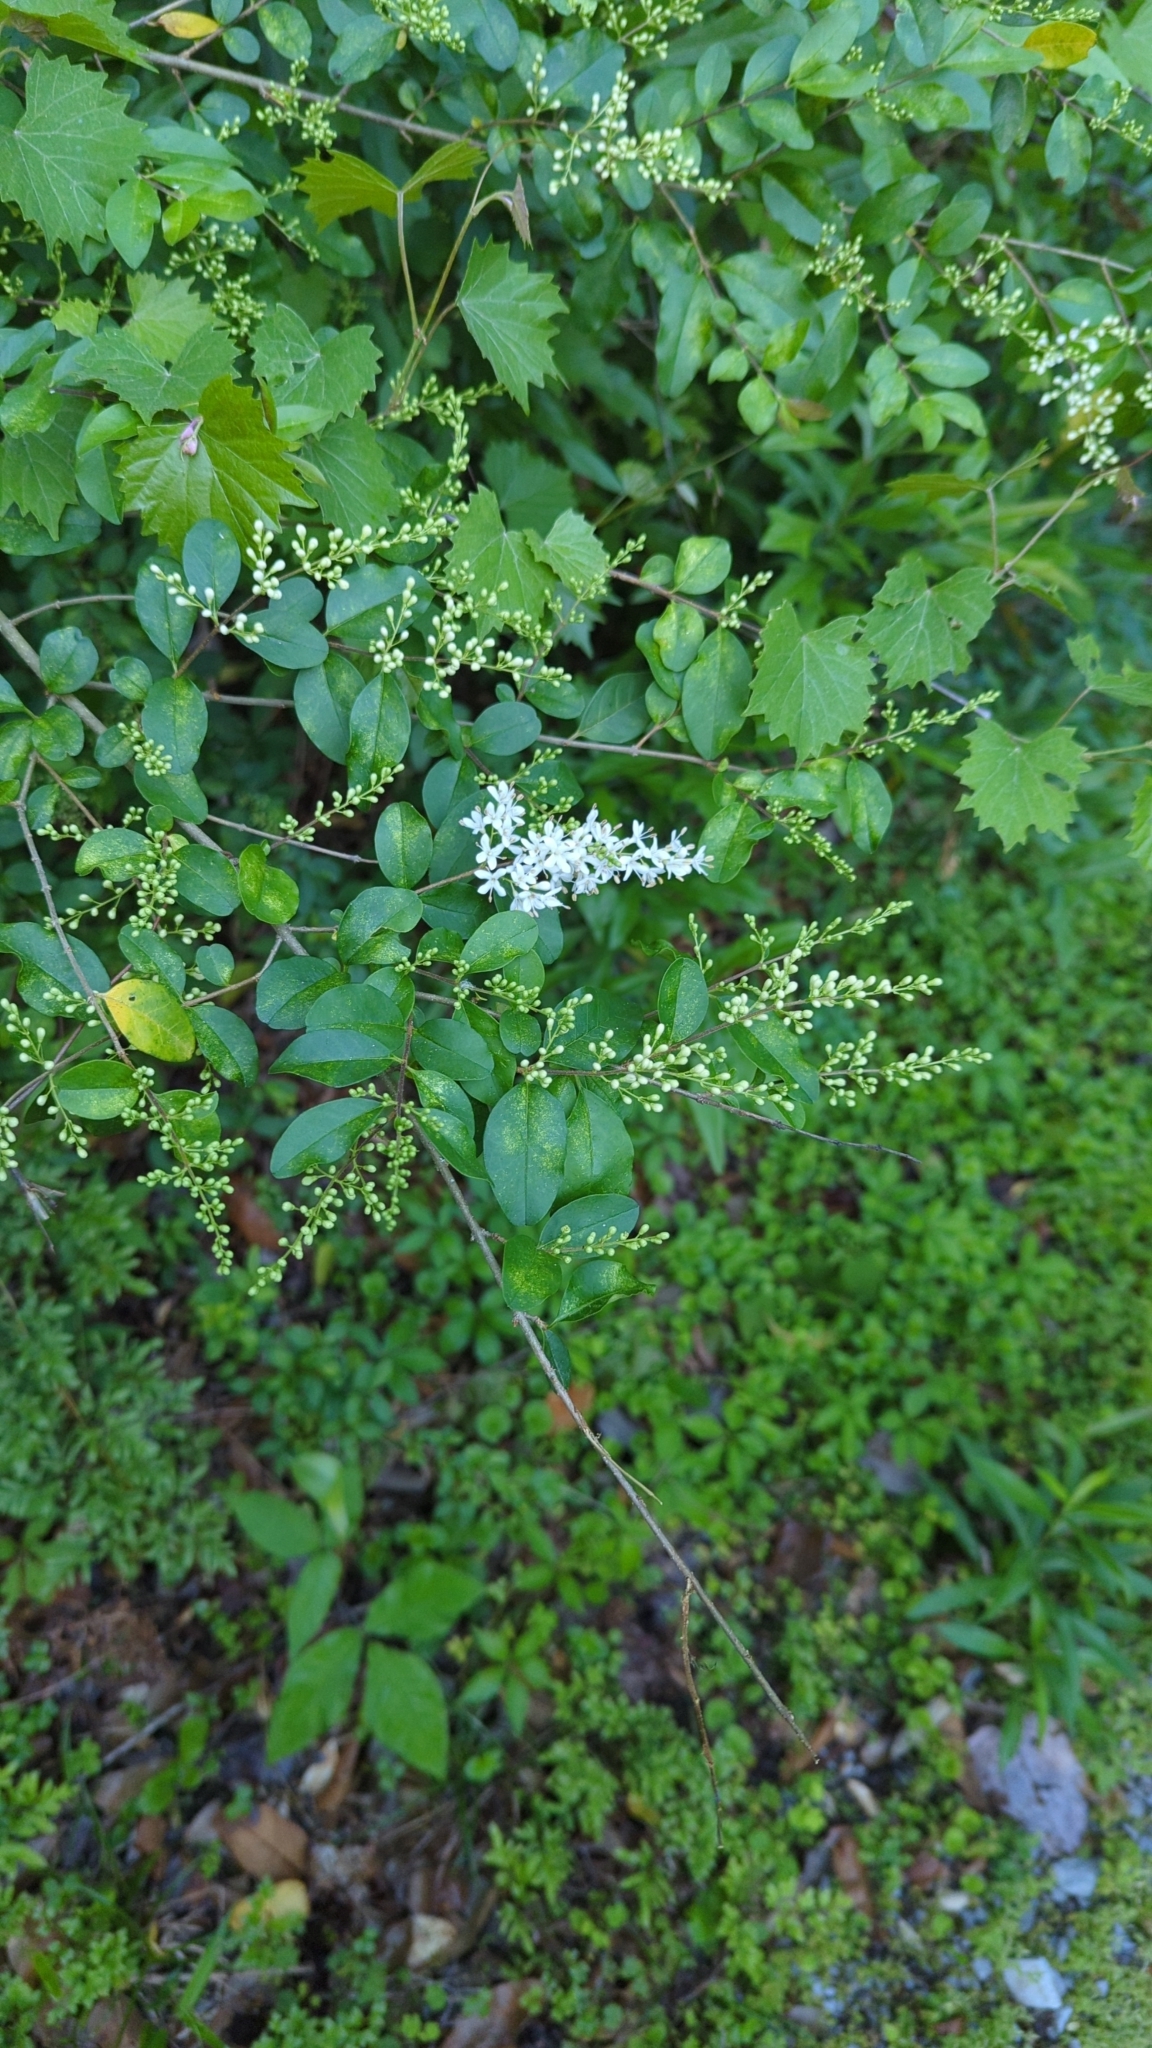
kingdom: Plantae
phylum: Tracheophyta
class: Magnoliopsida
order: Lamiales
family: Oleaceae
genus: Ligustrum
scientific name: Ligustrum sinense
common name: Chinese privet
